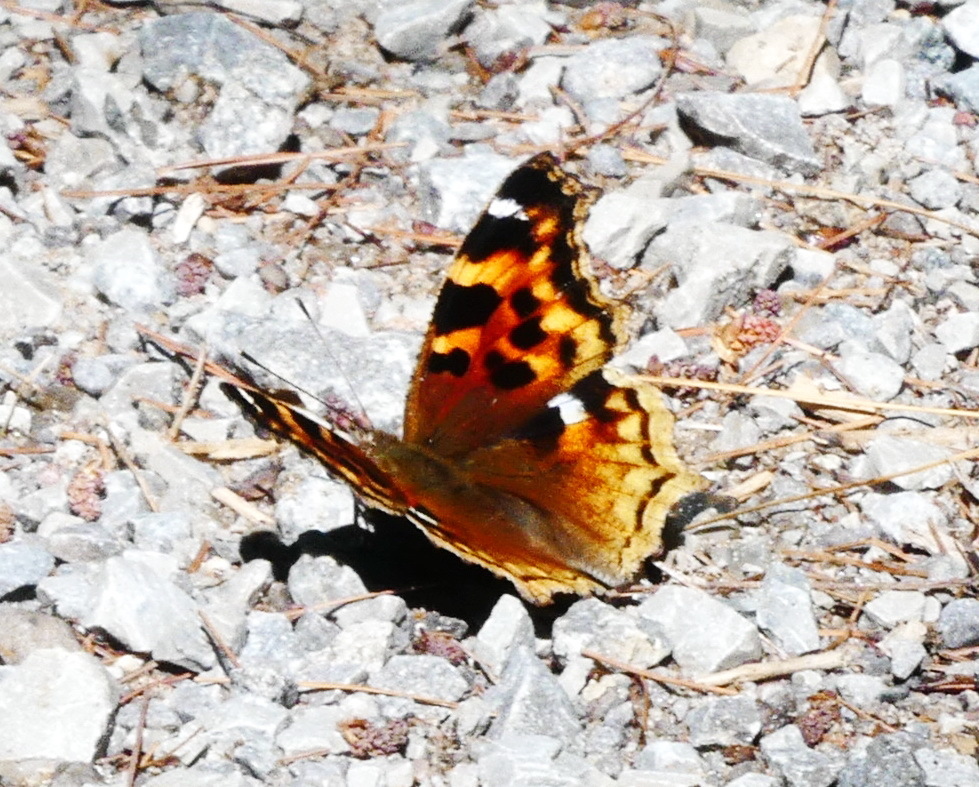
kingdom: Animalia
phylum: Arthropoda
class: Insecta
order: Lepidoptera
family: Nymphalidae
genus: Polygonia
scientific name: Polygonia vaualbum
